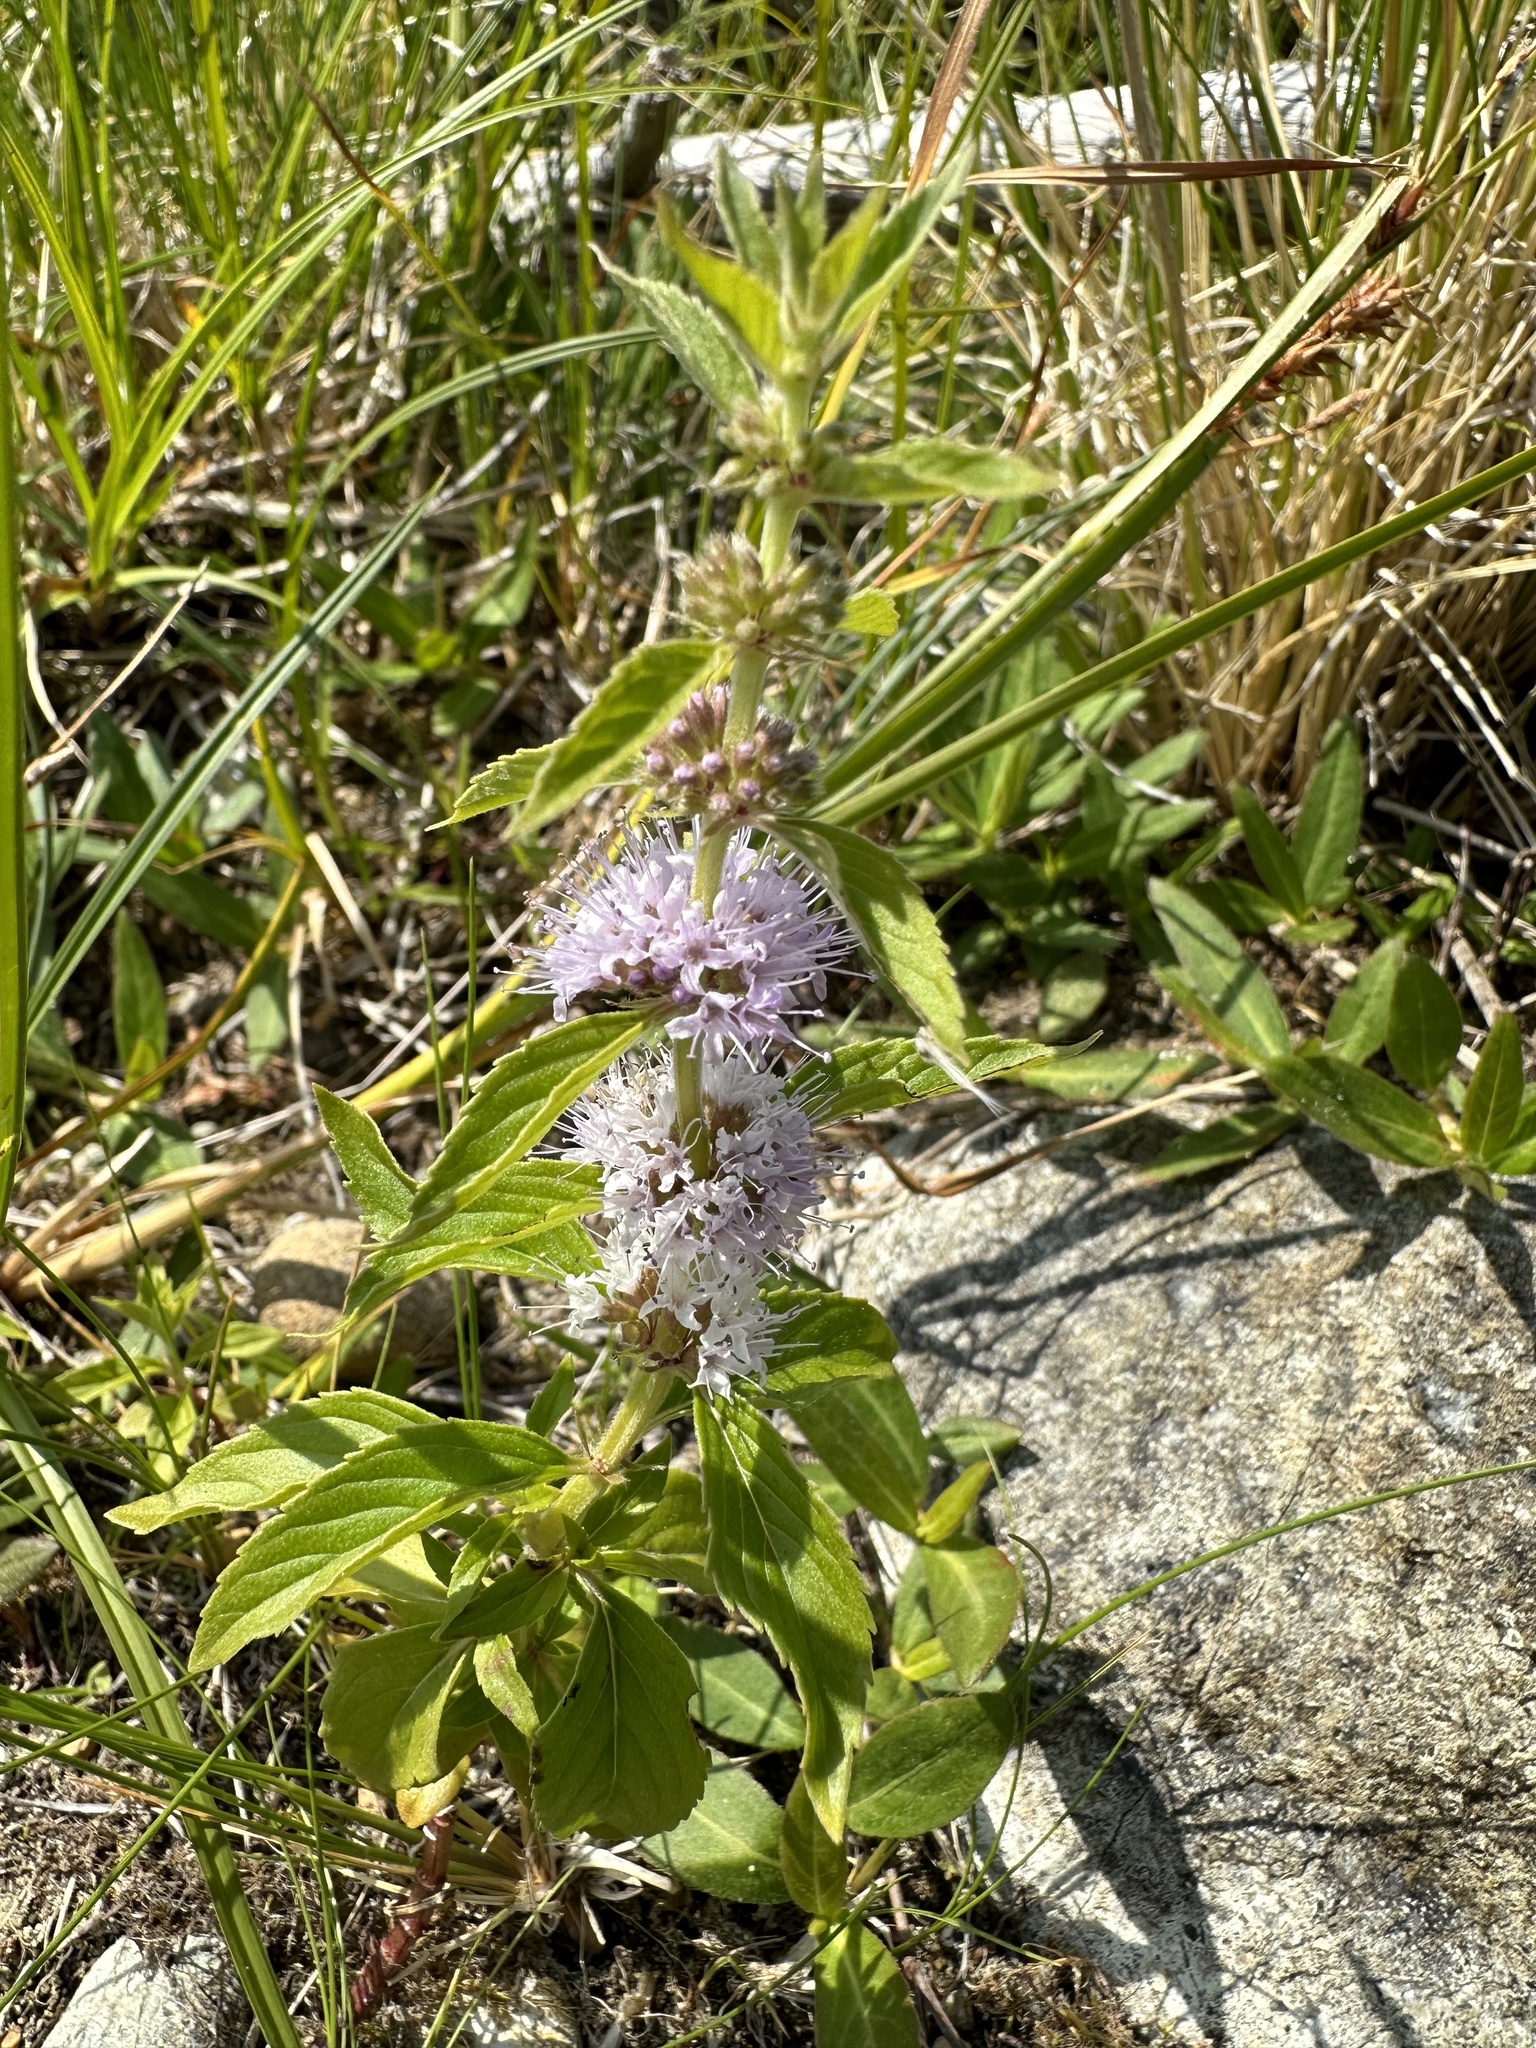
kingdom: Plantae
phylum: Tracheophyta
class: Magnoliopsida
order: Lamiales
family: Lamiaceae
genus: Mentha
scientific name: Mentha canadensis
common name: American corn mint
